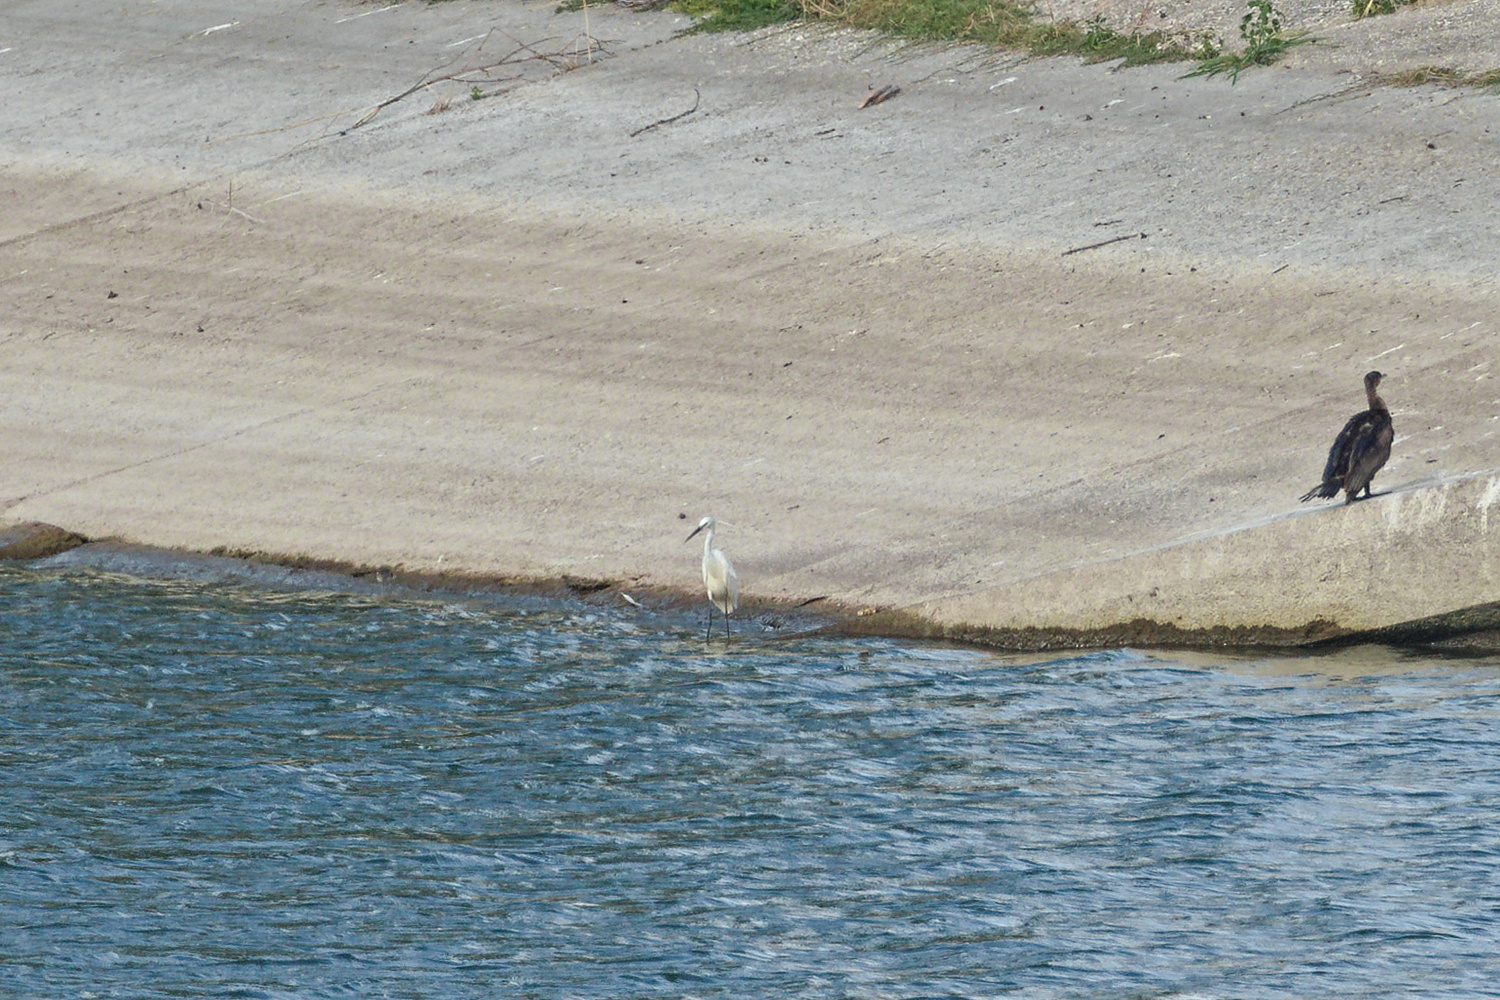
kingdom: Animalia
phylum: Chordata
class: Aves
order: Suliformes
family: Phalacrocoracidae
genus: Phalacrocorax
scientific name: Phalacrocorax carbo
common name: Great cormorant
